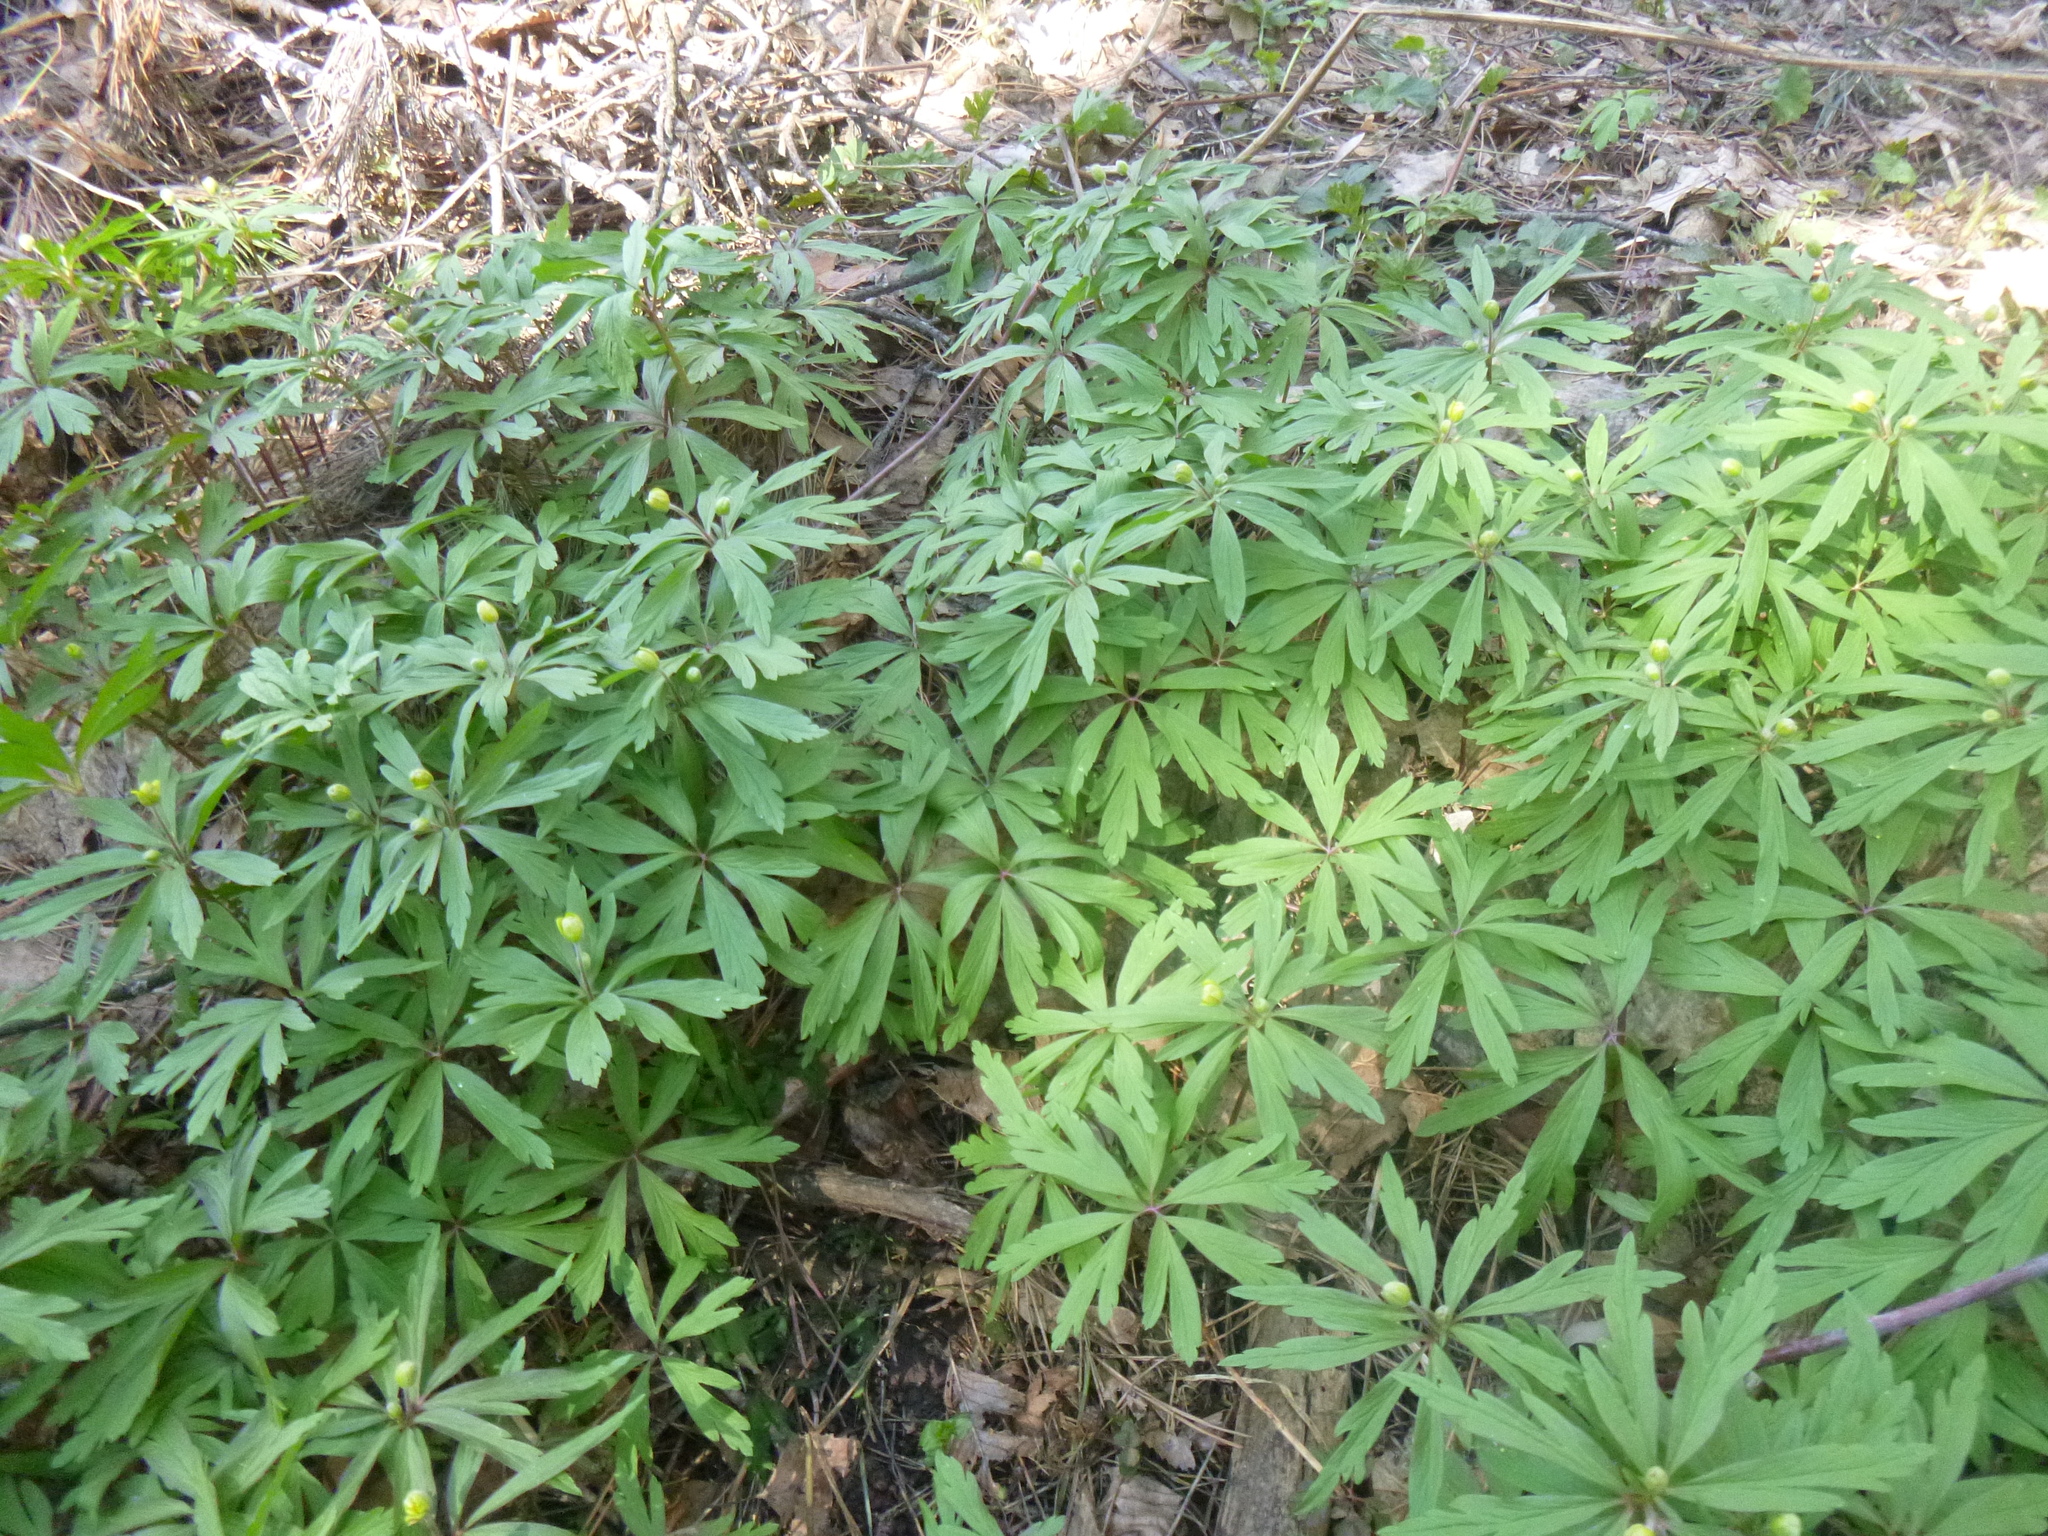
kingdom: Plantae
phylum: Tracheophyta
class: Magnoliopsida
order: Ranunculales
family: Ranunculaceae
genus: Anemone
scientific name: Anemone ranunculoides
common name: Yellow anemone
